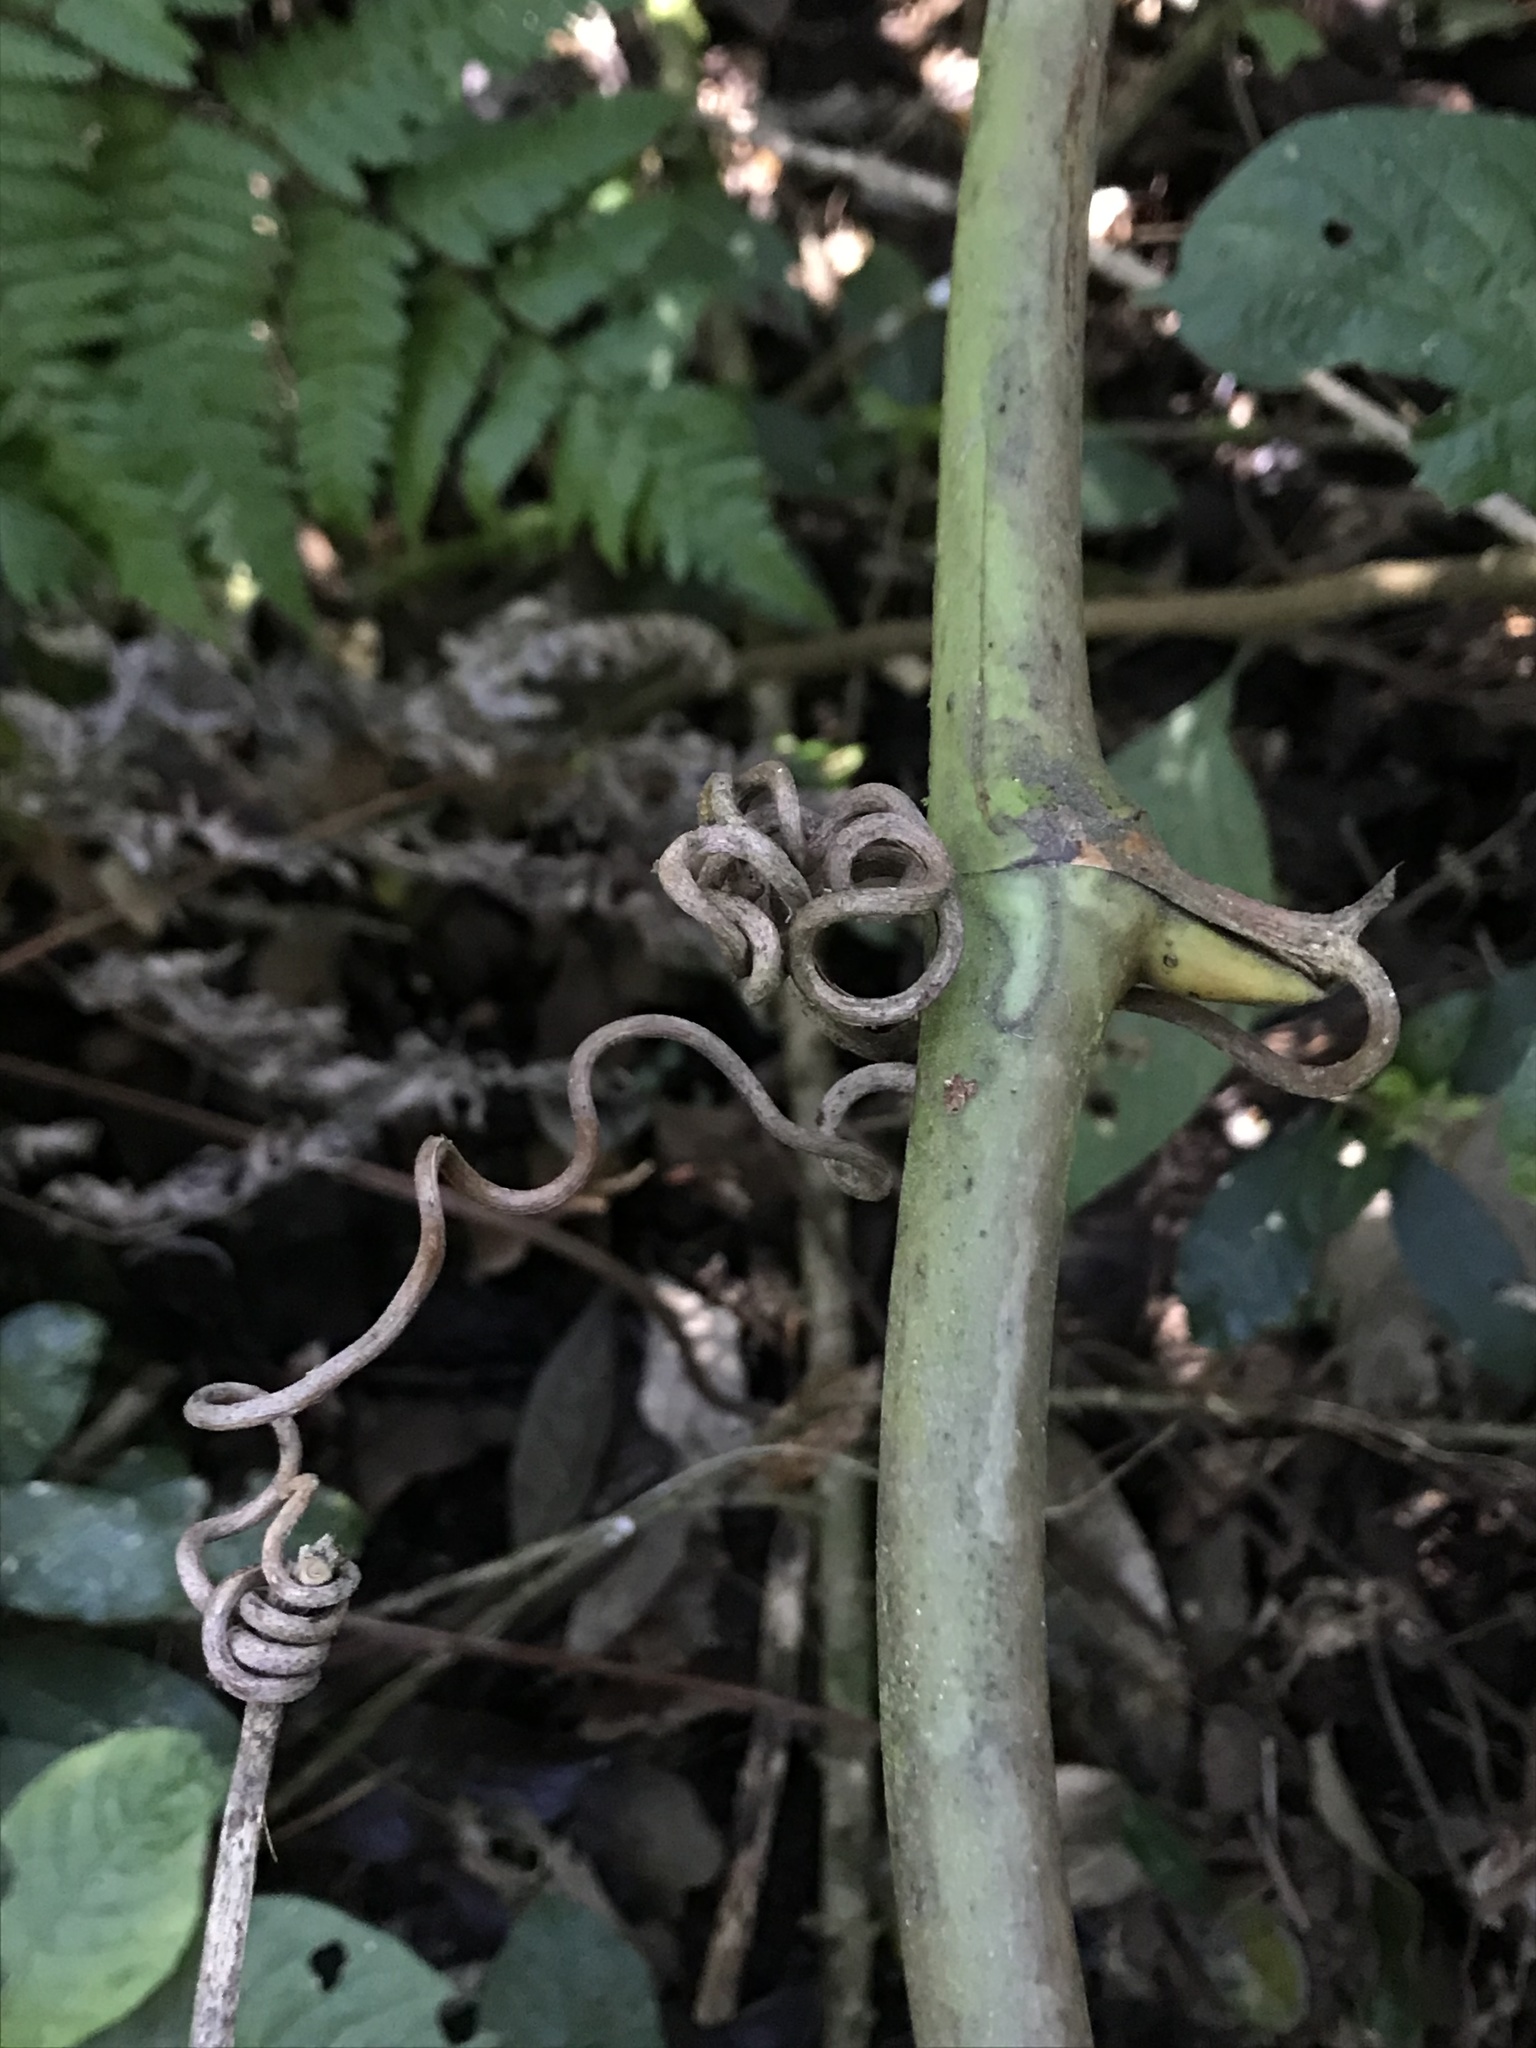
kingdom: Plantae
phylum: Tracheophyta
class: Liliopsida
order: Liliales
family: Smilacaceae
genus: Smilax
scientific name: Smilax domingensis
